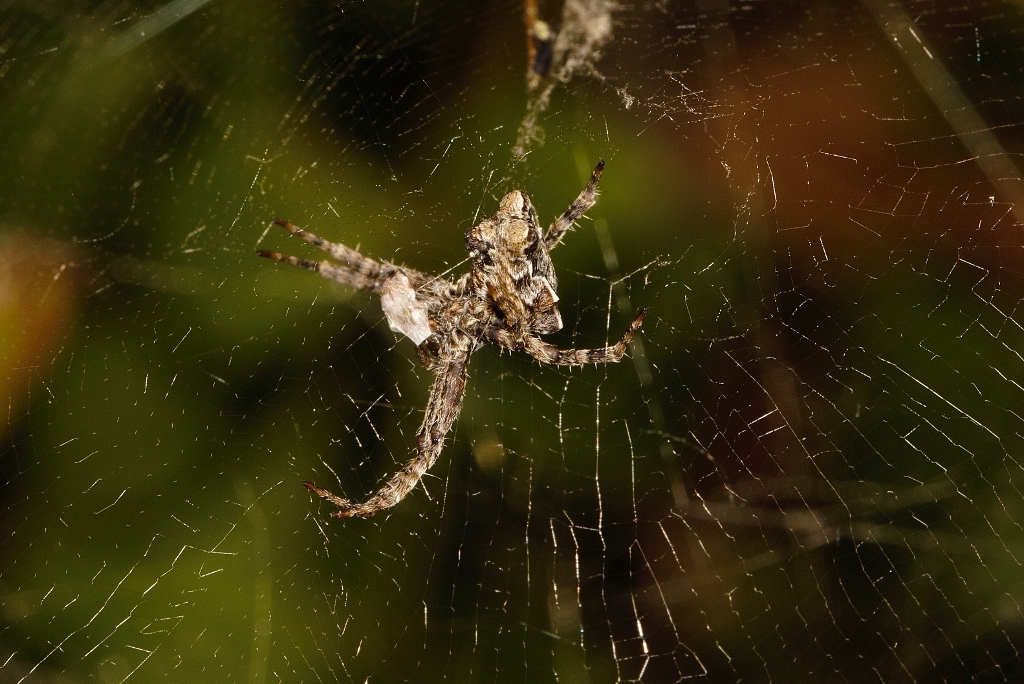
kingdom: Animalia
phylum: Arthropoda
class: Arachnida
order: Araneae
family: Araneidae
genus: Cyrtophora
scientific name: Cyrtophora citricola
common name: Orb weavers
